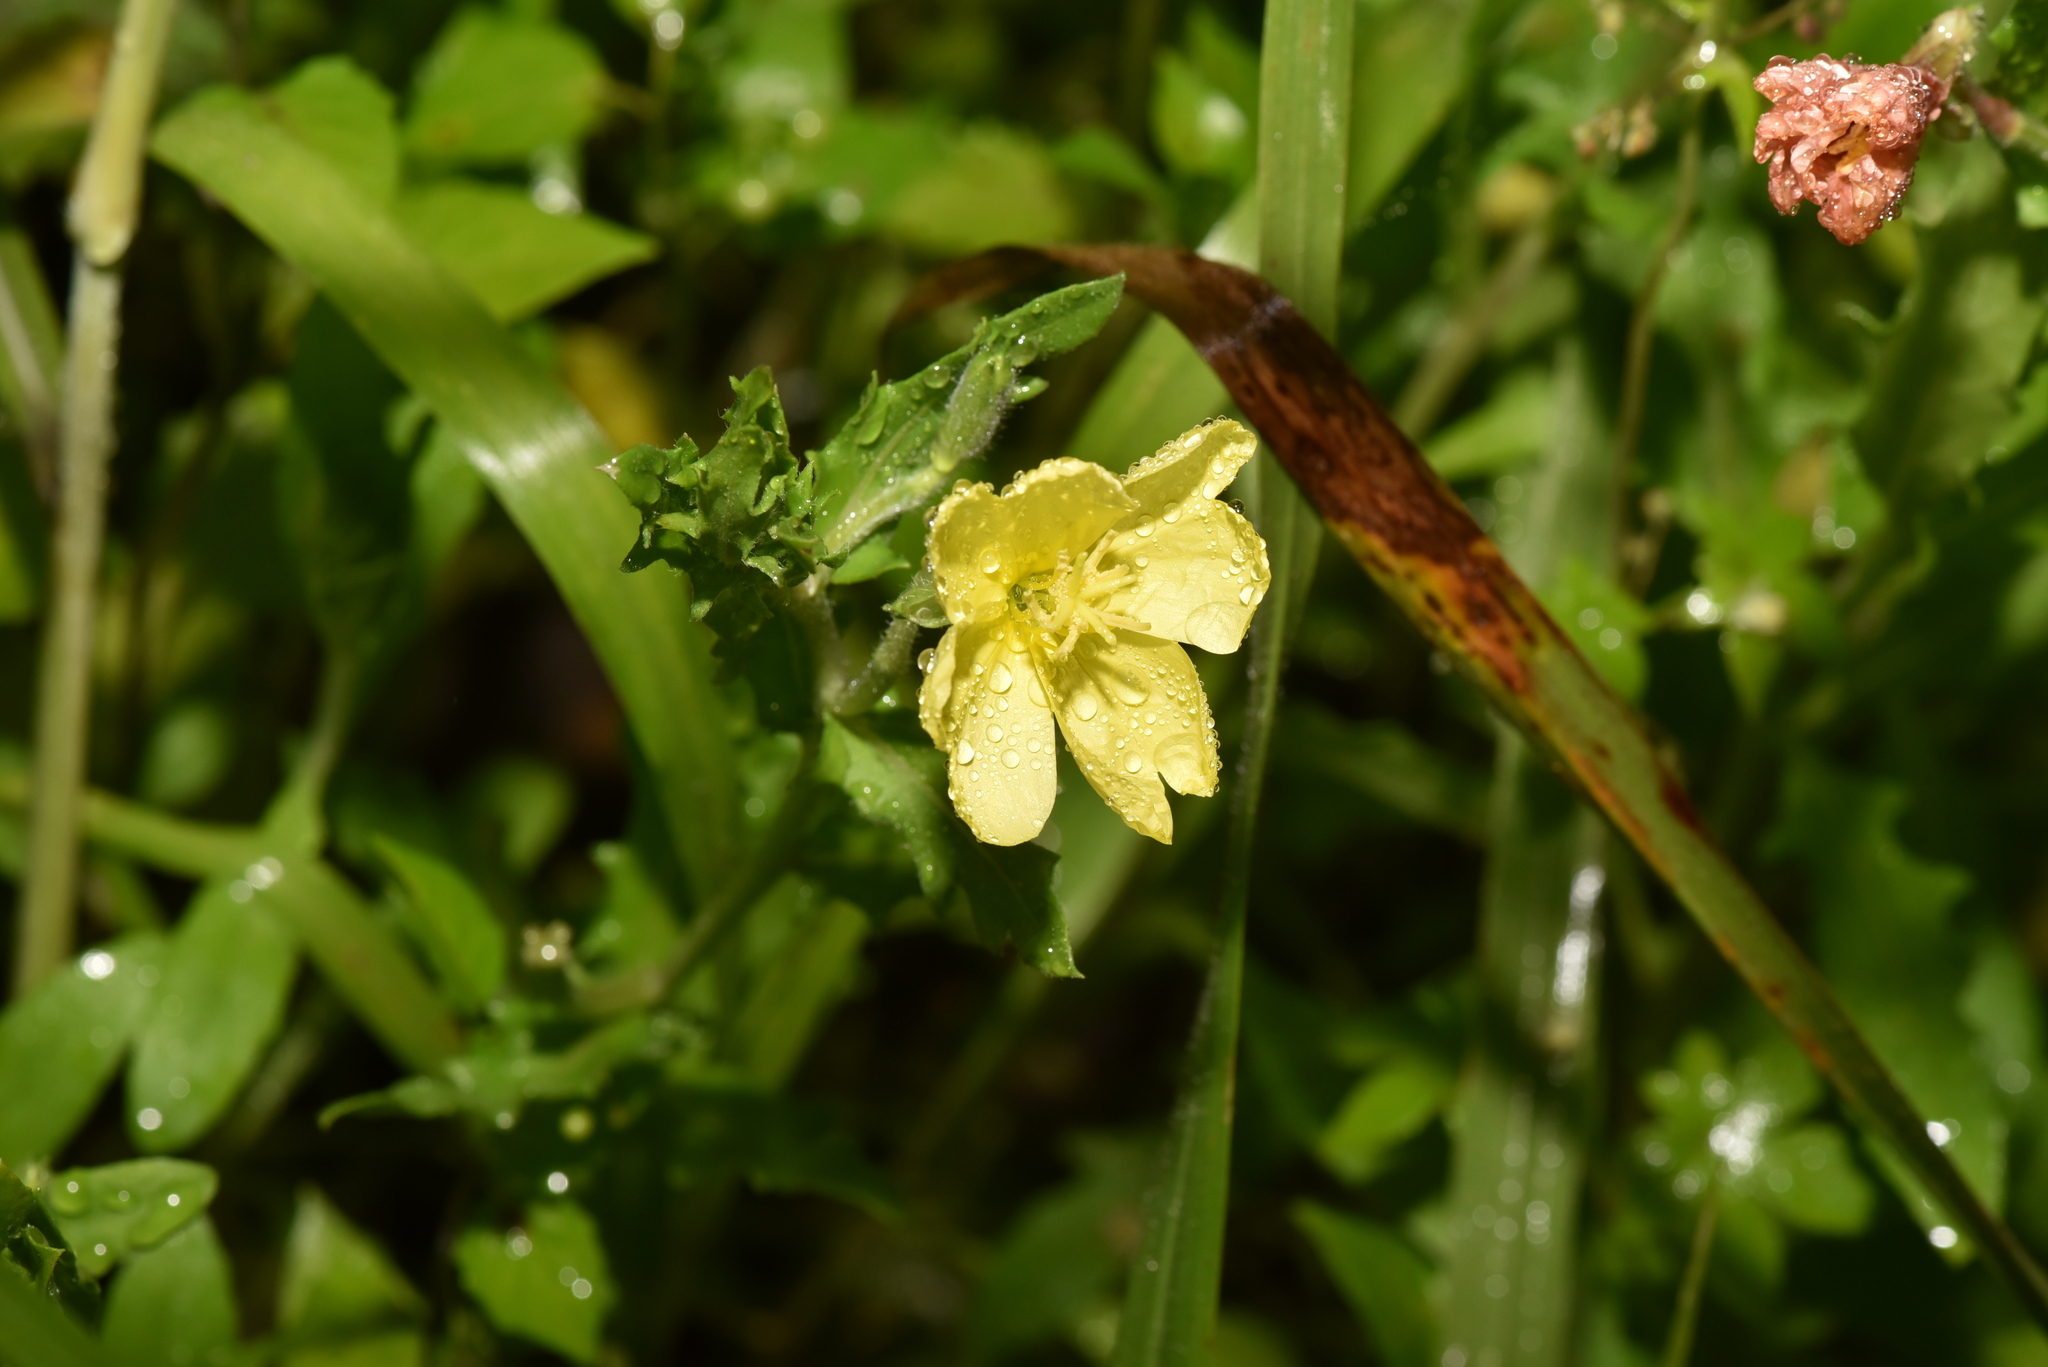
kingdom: Plantae
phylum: Tracheophyta
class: Magnoliopsida
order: Myrtales
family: Onagraceae
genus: Oenothera
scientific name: Oenothera laciniata
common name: Cut-leaved evening-primrose
